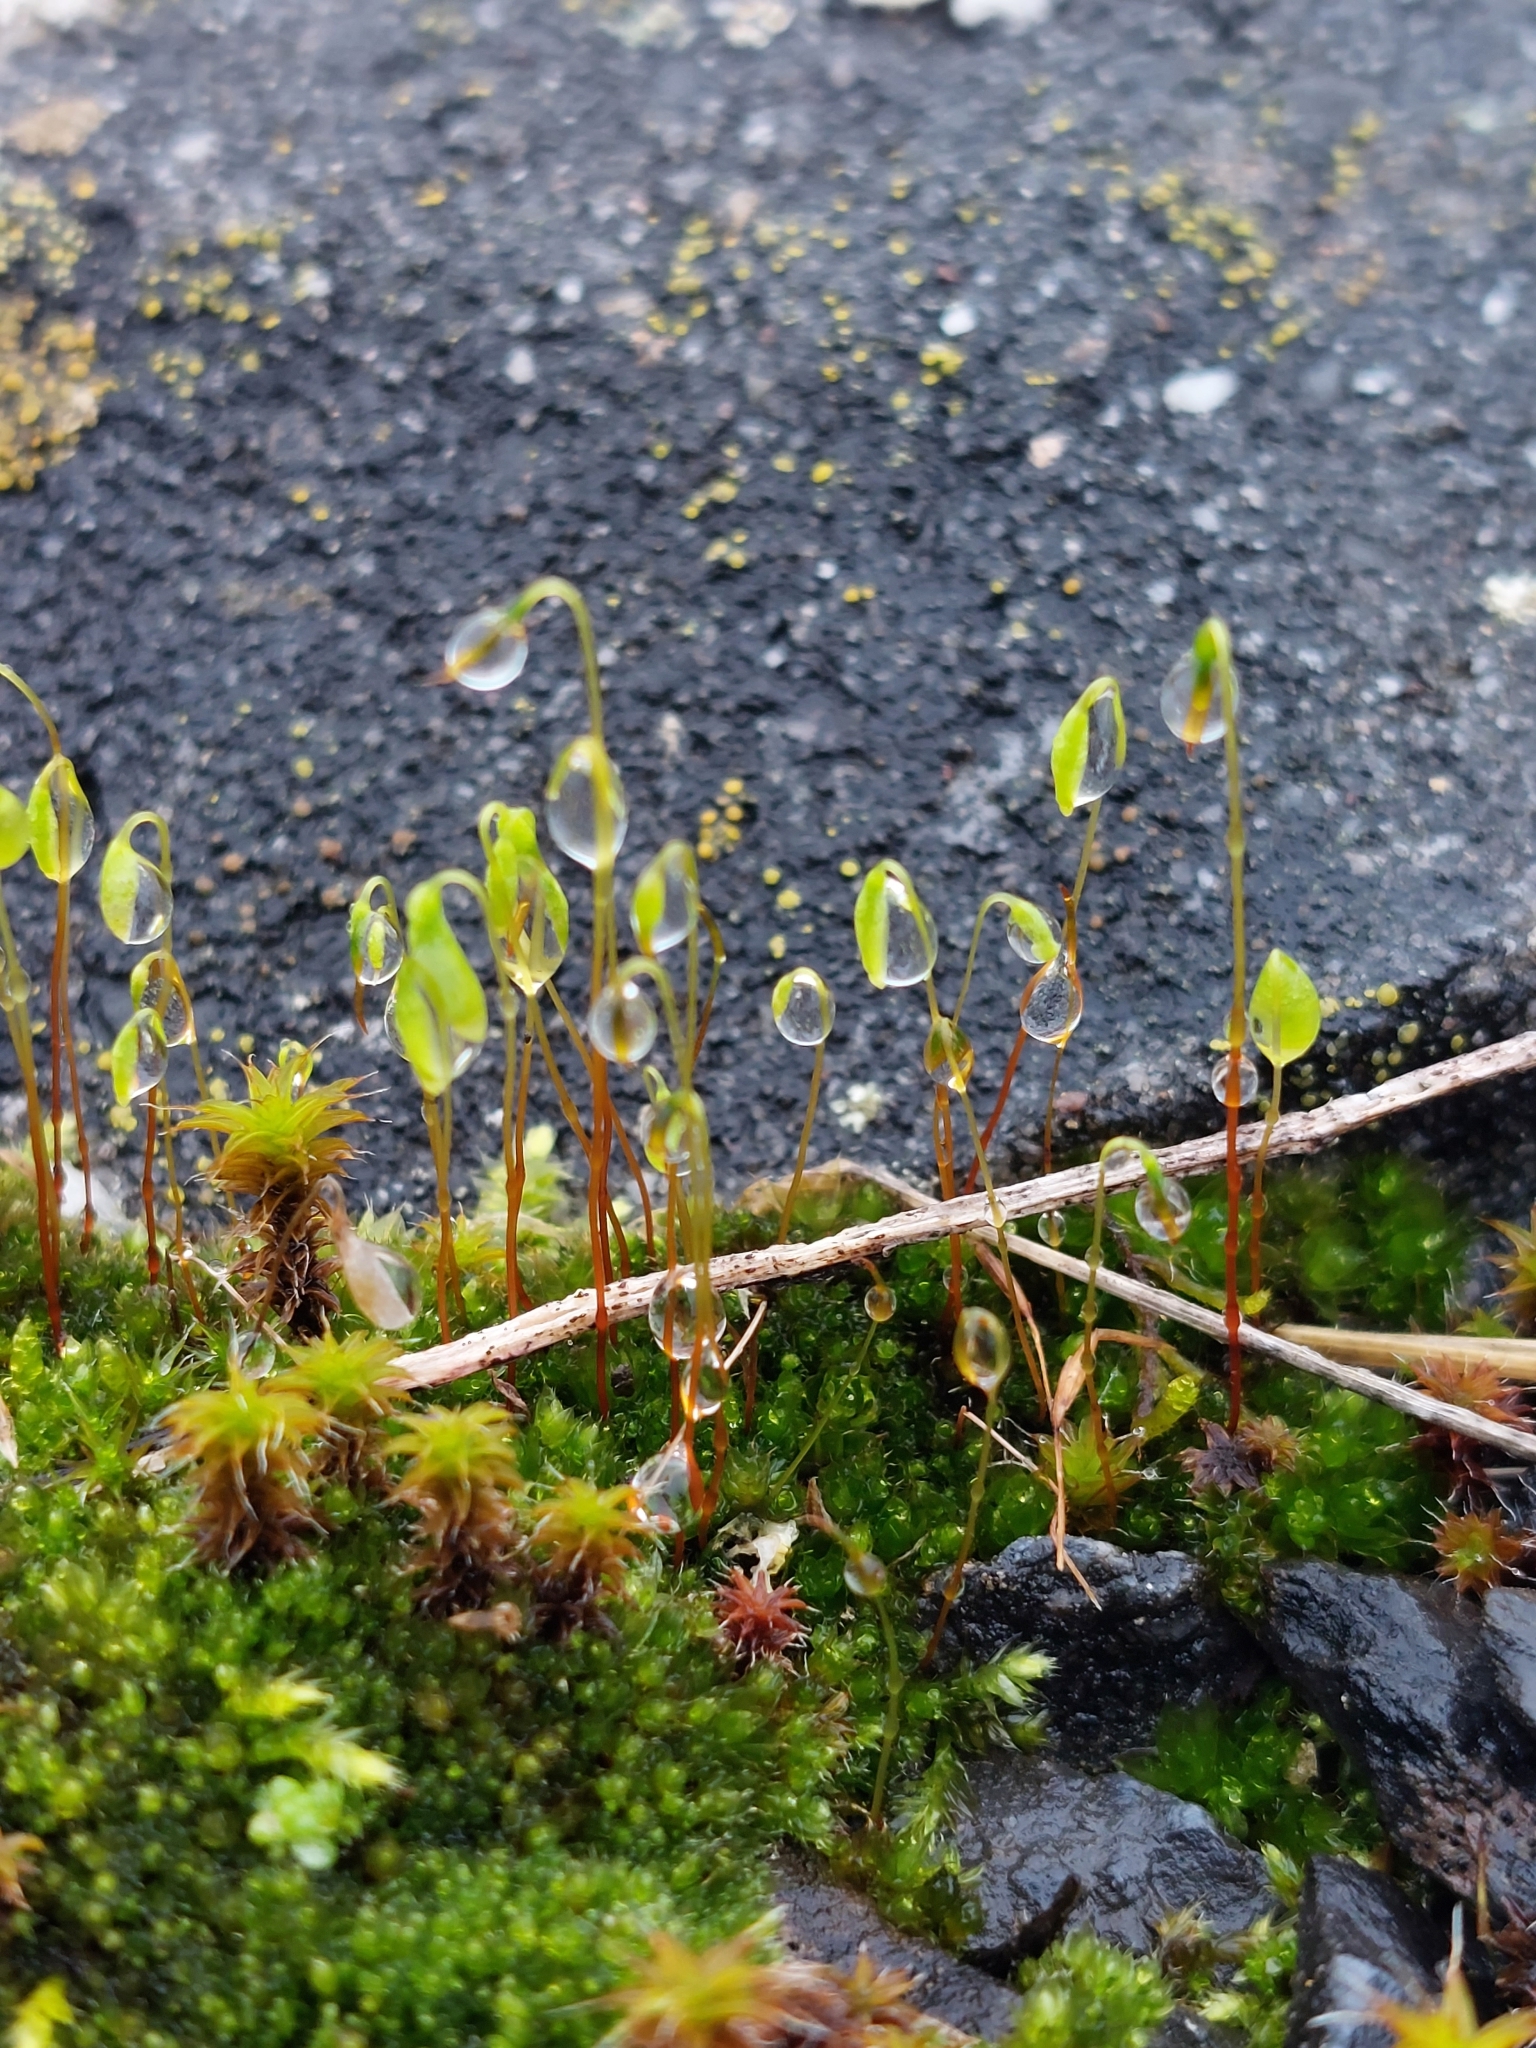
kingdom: Plantae
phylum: Bryophyta
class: Bryopsida
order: Bryales
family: Bryaceae
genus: Rosulabryum
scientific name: Rosulabryum capillare
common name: Capillary thread-moss
